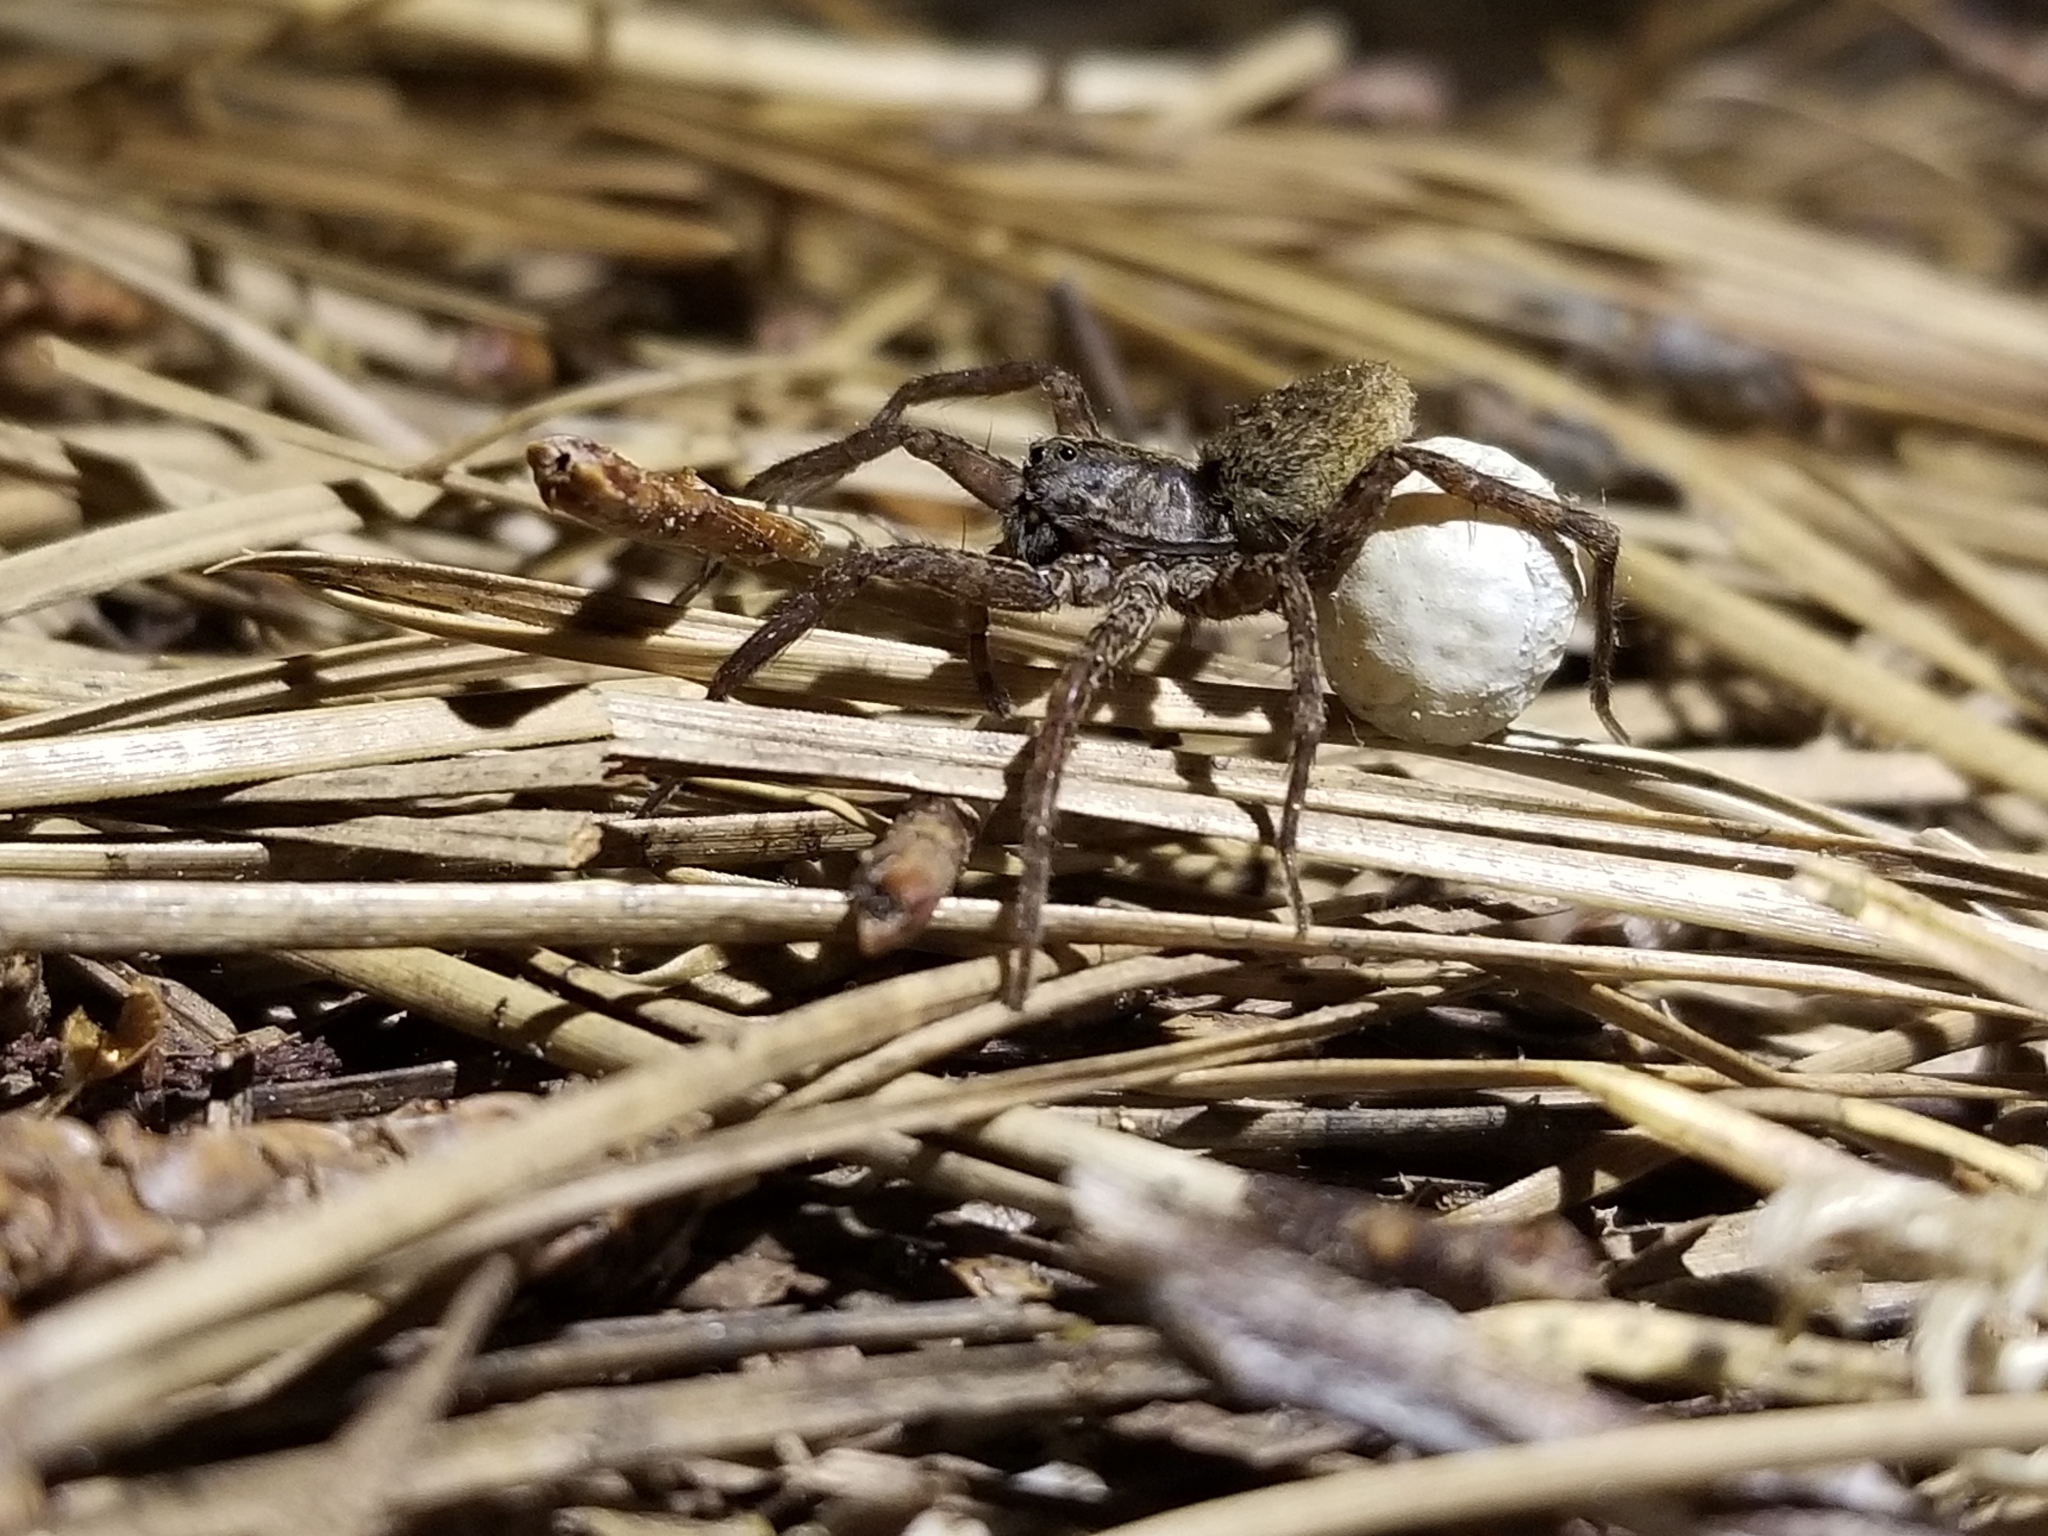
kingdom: Animalia
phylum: Arthropoda
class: Arachnida
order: Araneae
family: Lycosidae
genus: Gladicosa
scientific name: Gladicosa gulosa
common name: Drumming sword wolf spider
